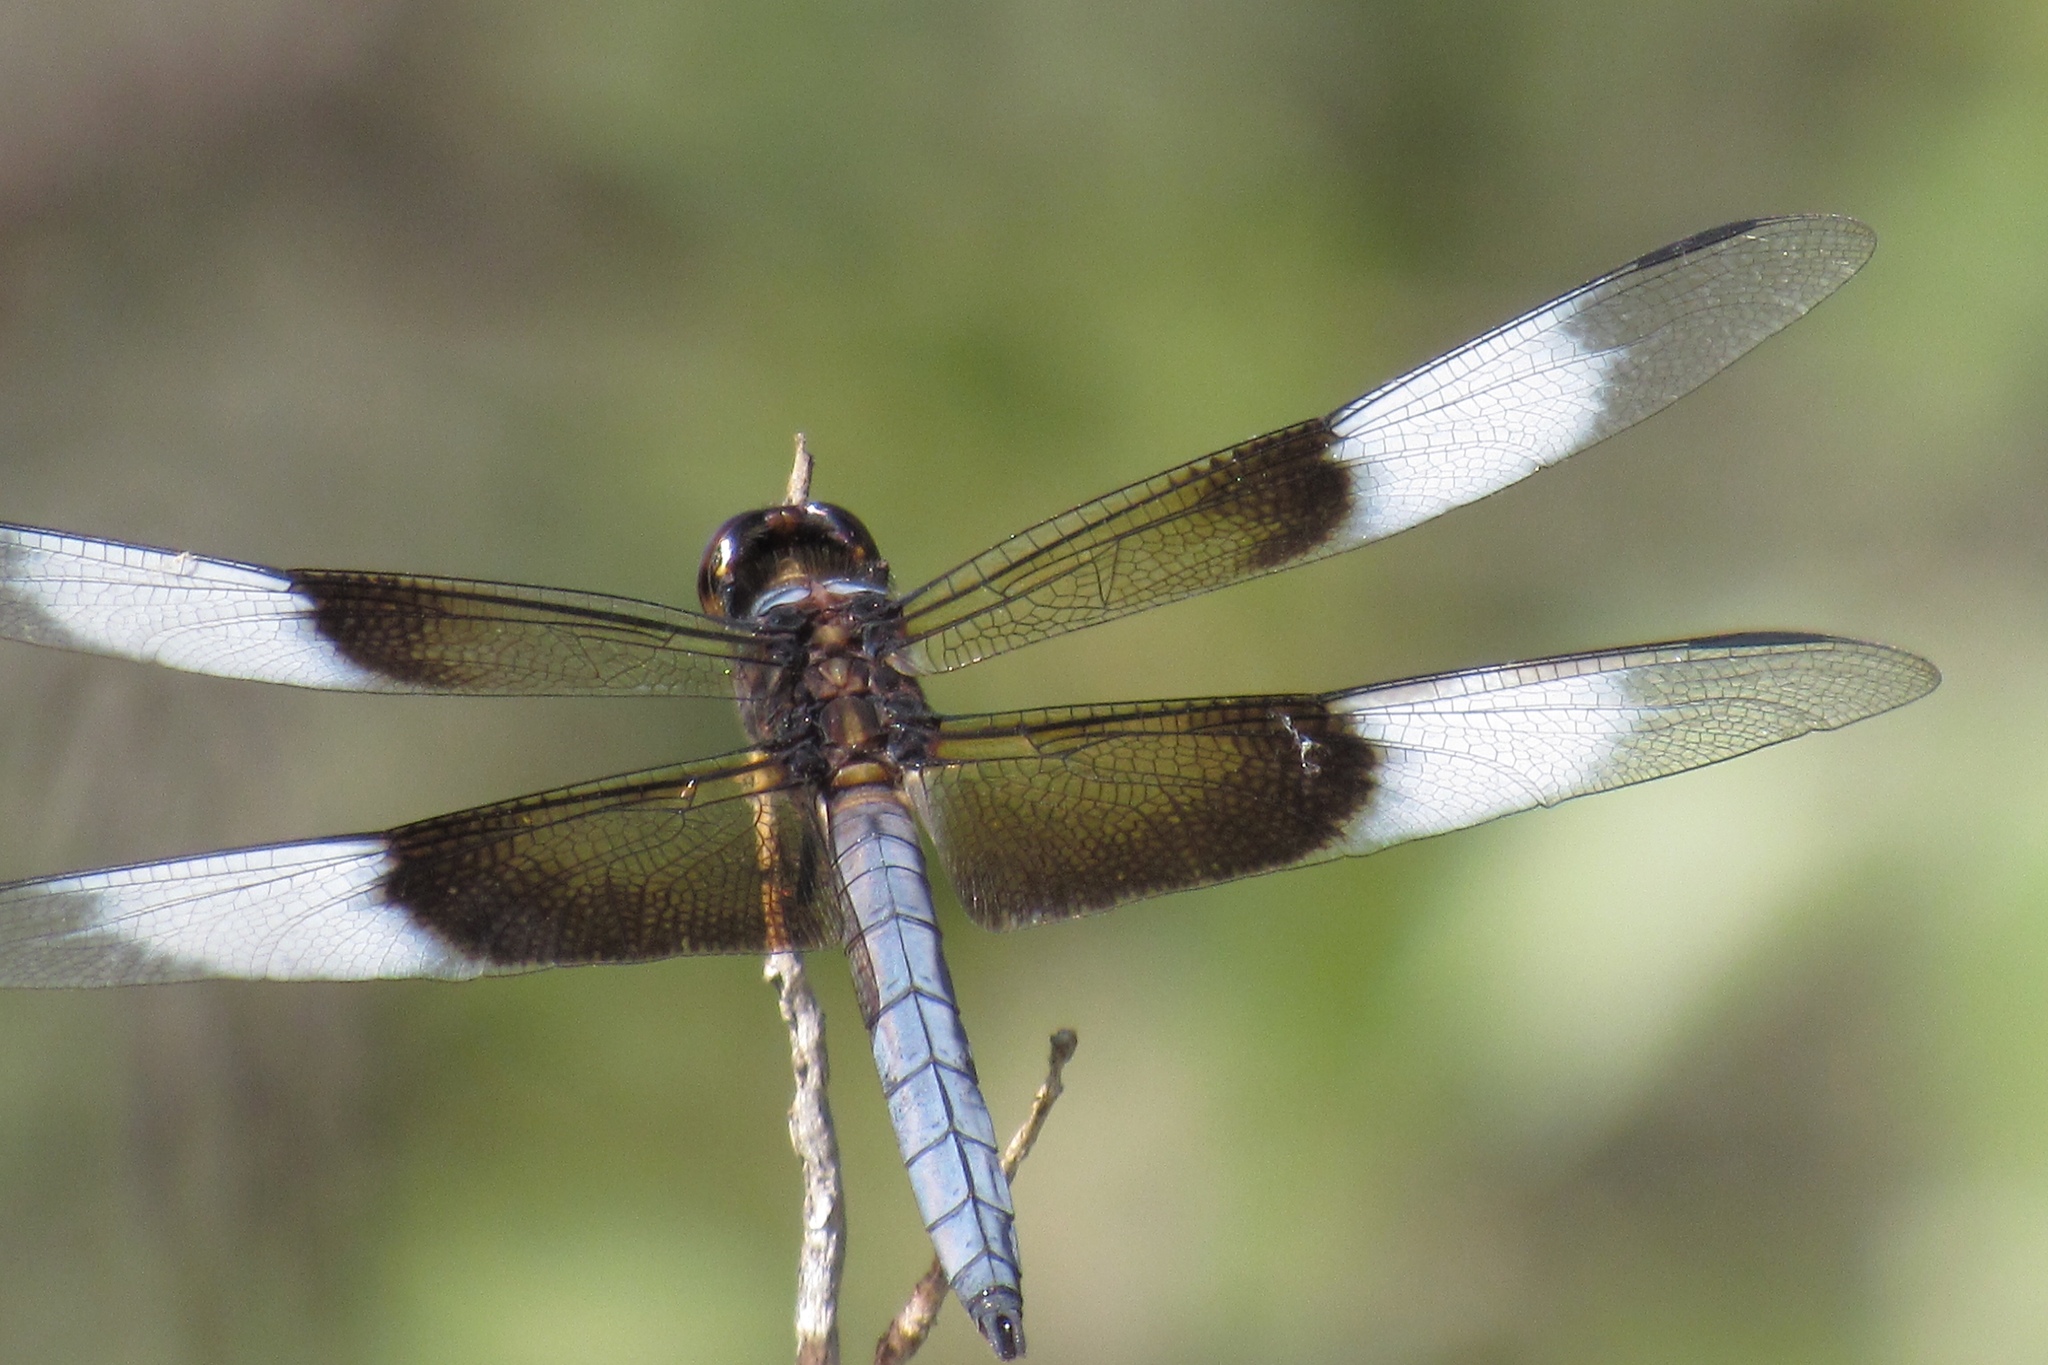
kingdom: Animalia
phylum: Arthropoda
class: Insecta
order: Odonata
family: Libellulidae
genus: Libellula
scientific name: Libellula luctuosa
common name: Widow skimmer
